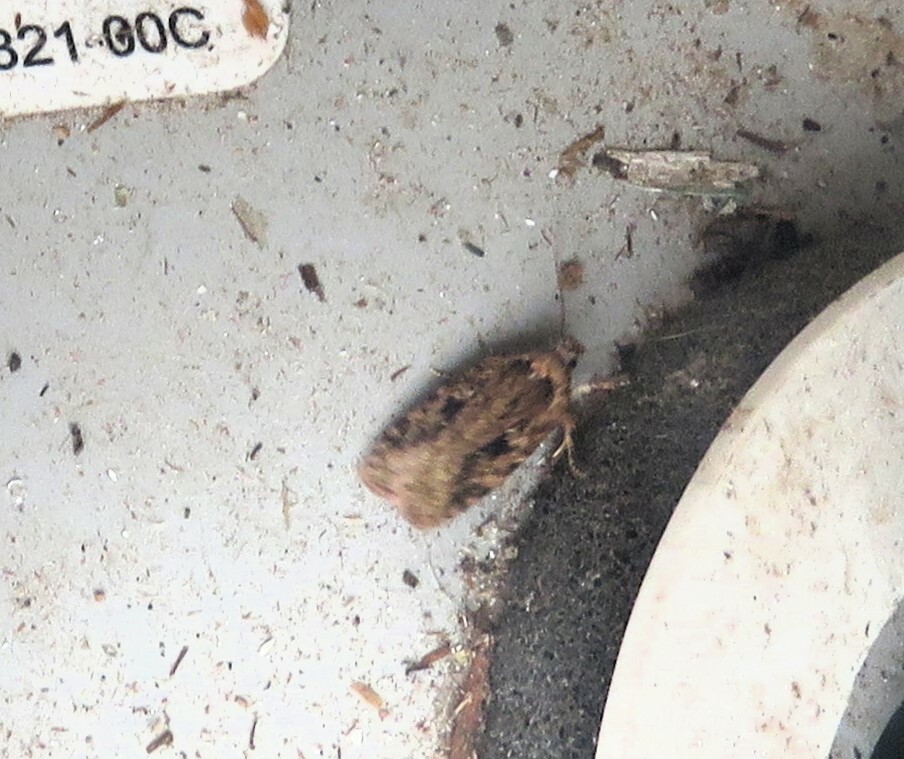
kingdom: Animalia
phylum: Arthropoda
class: Insecta
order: Lepidoptera
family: Depressariidae
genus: Agonopterix
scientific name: Agonopterix pulvipennella
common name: Goldenrod leafffolder
